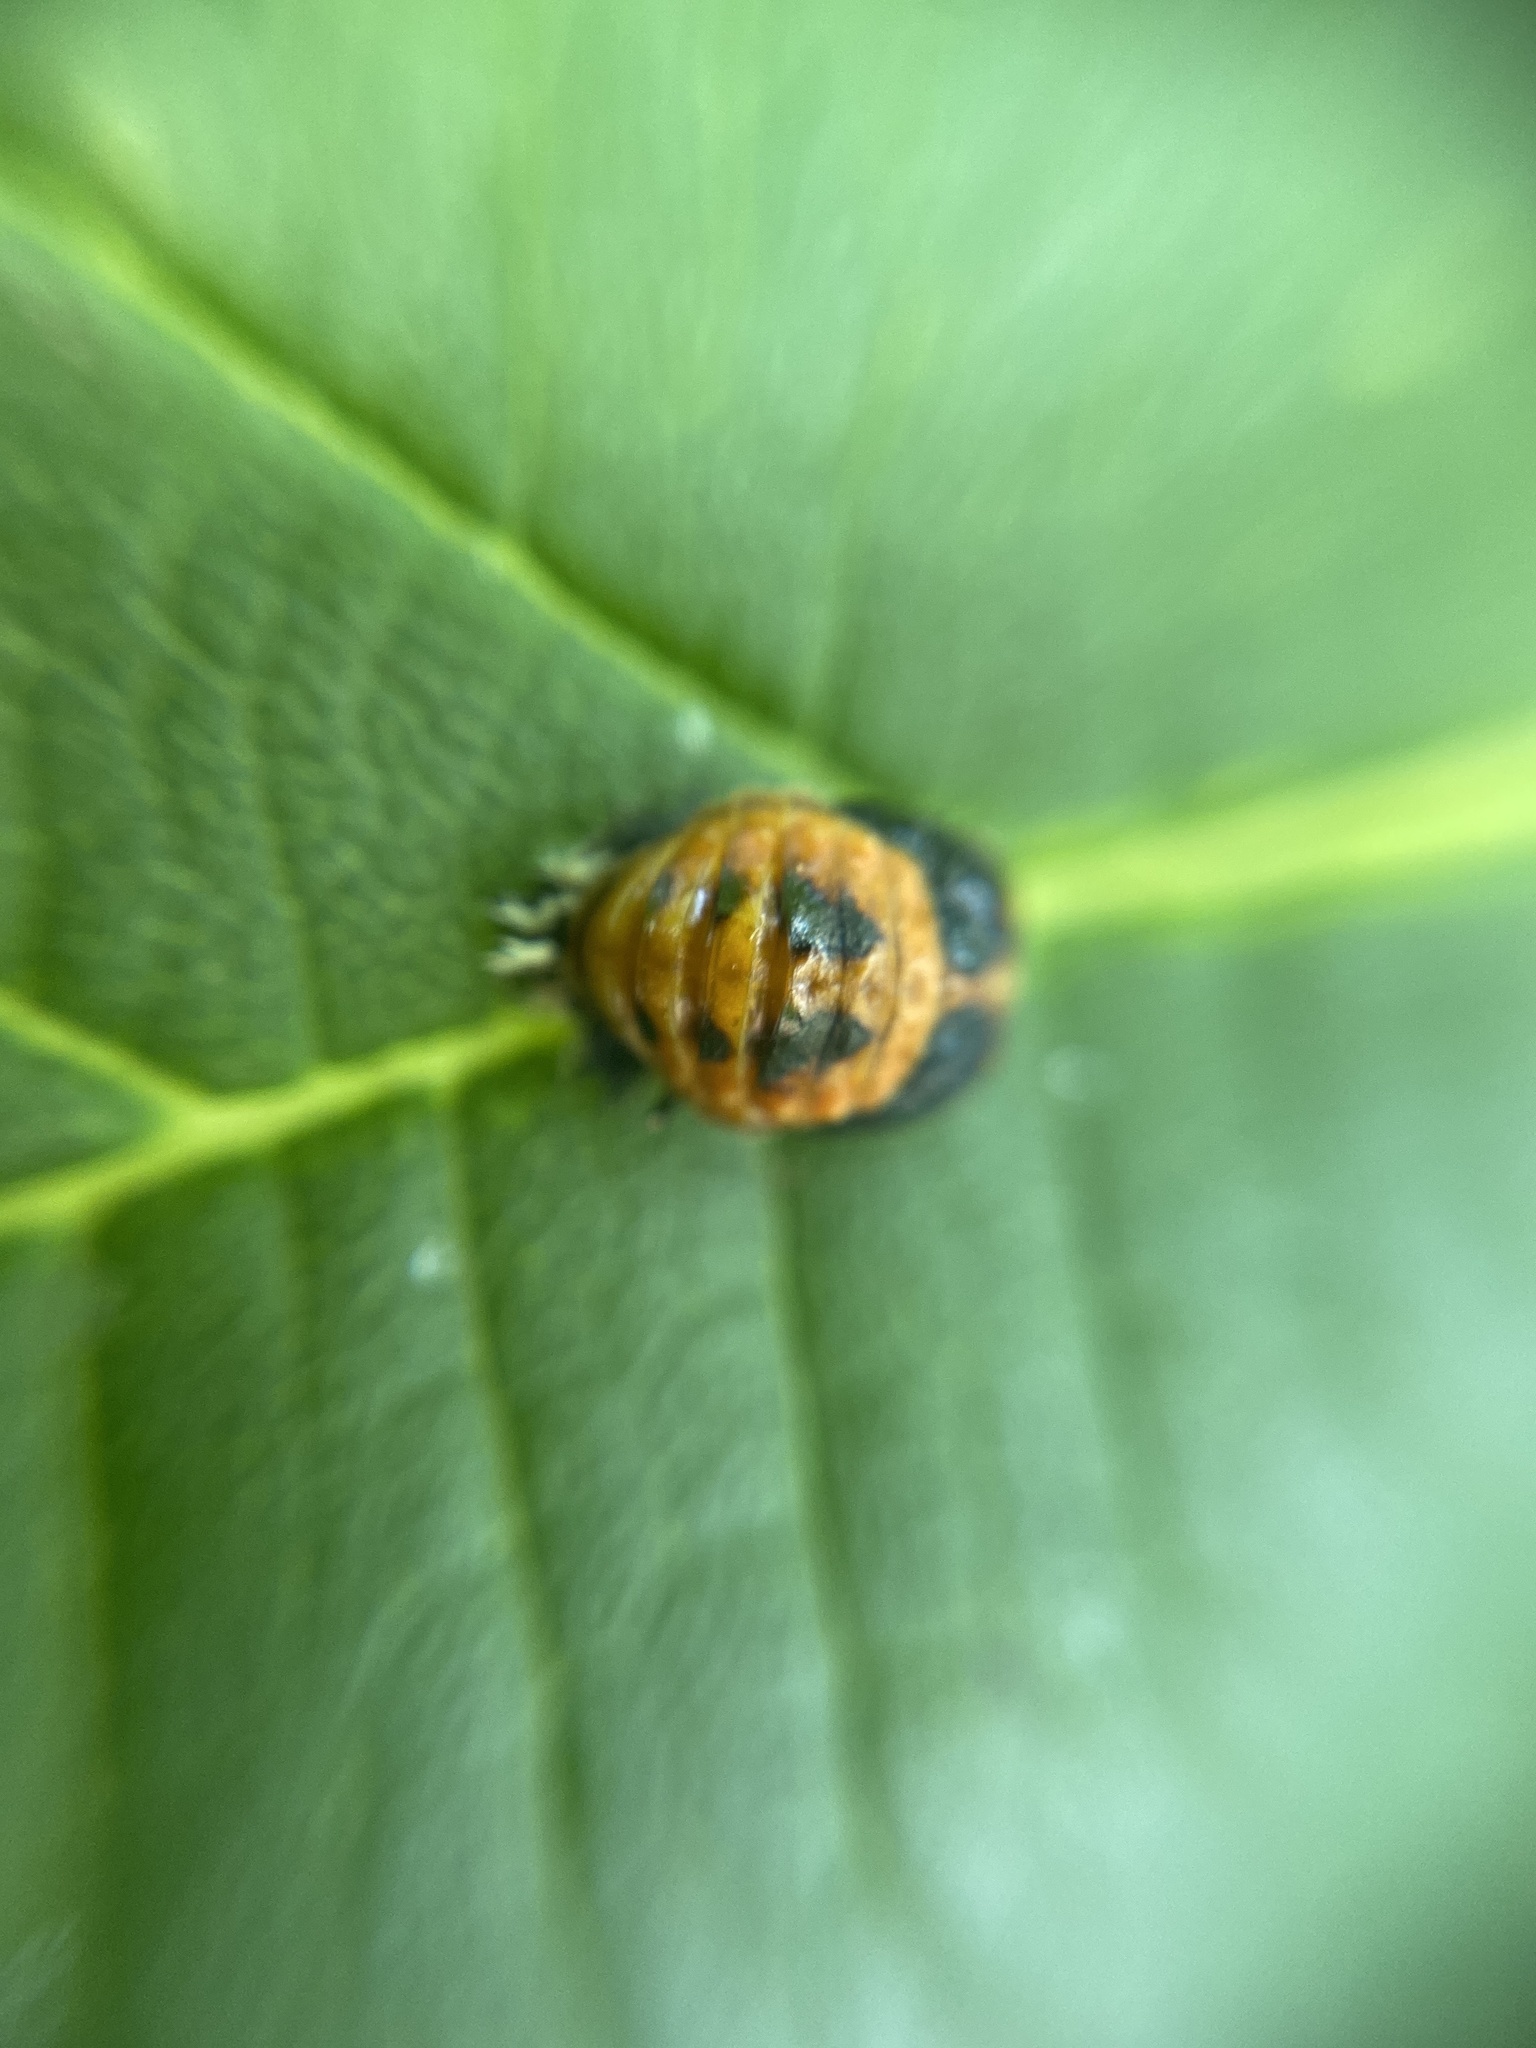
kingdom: Animalia
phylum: Arthropoda
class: Insecta
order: Coleoptera
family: Coccinellidae
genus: Harmonia
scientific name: Harmonia axyridis
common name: Harlequin ladybird
